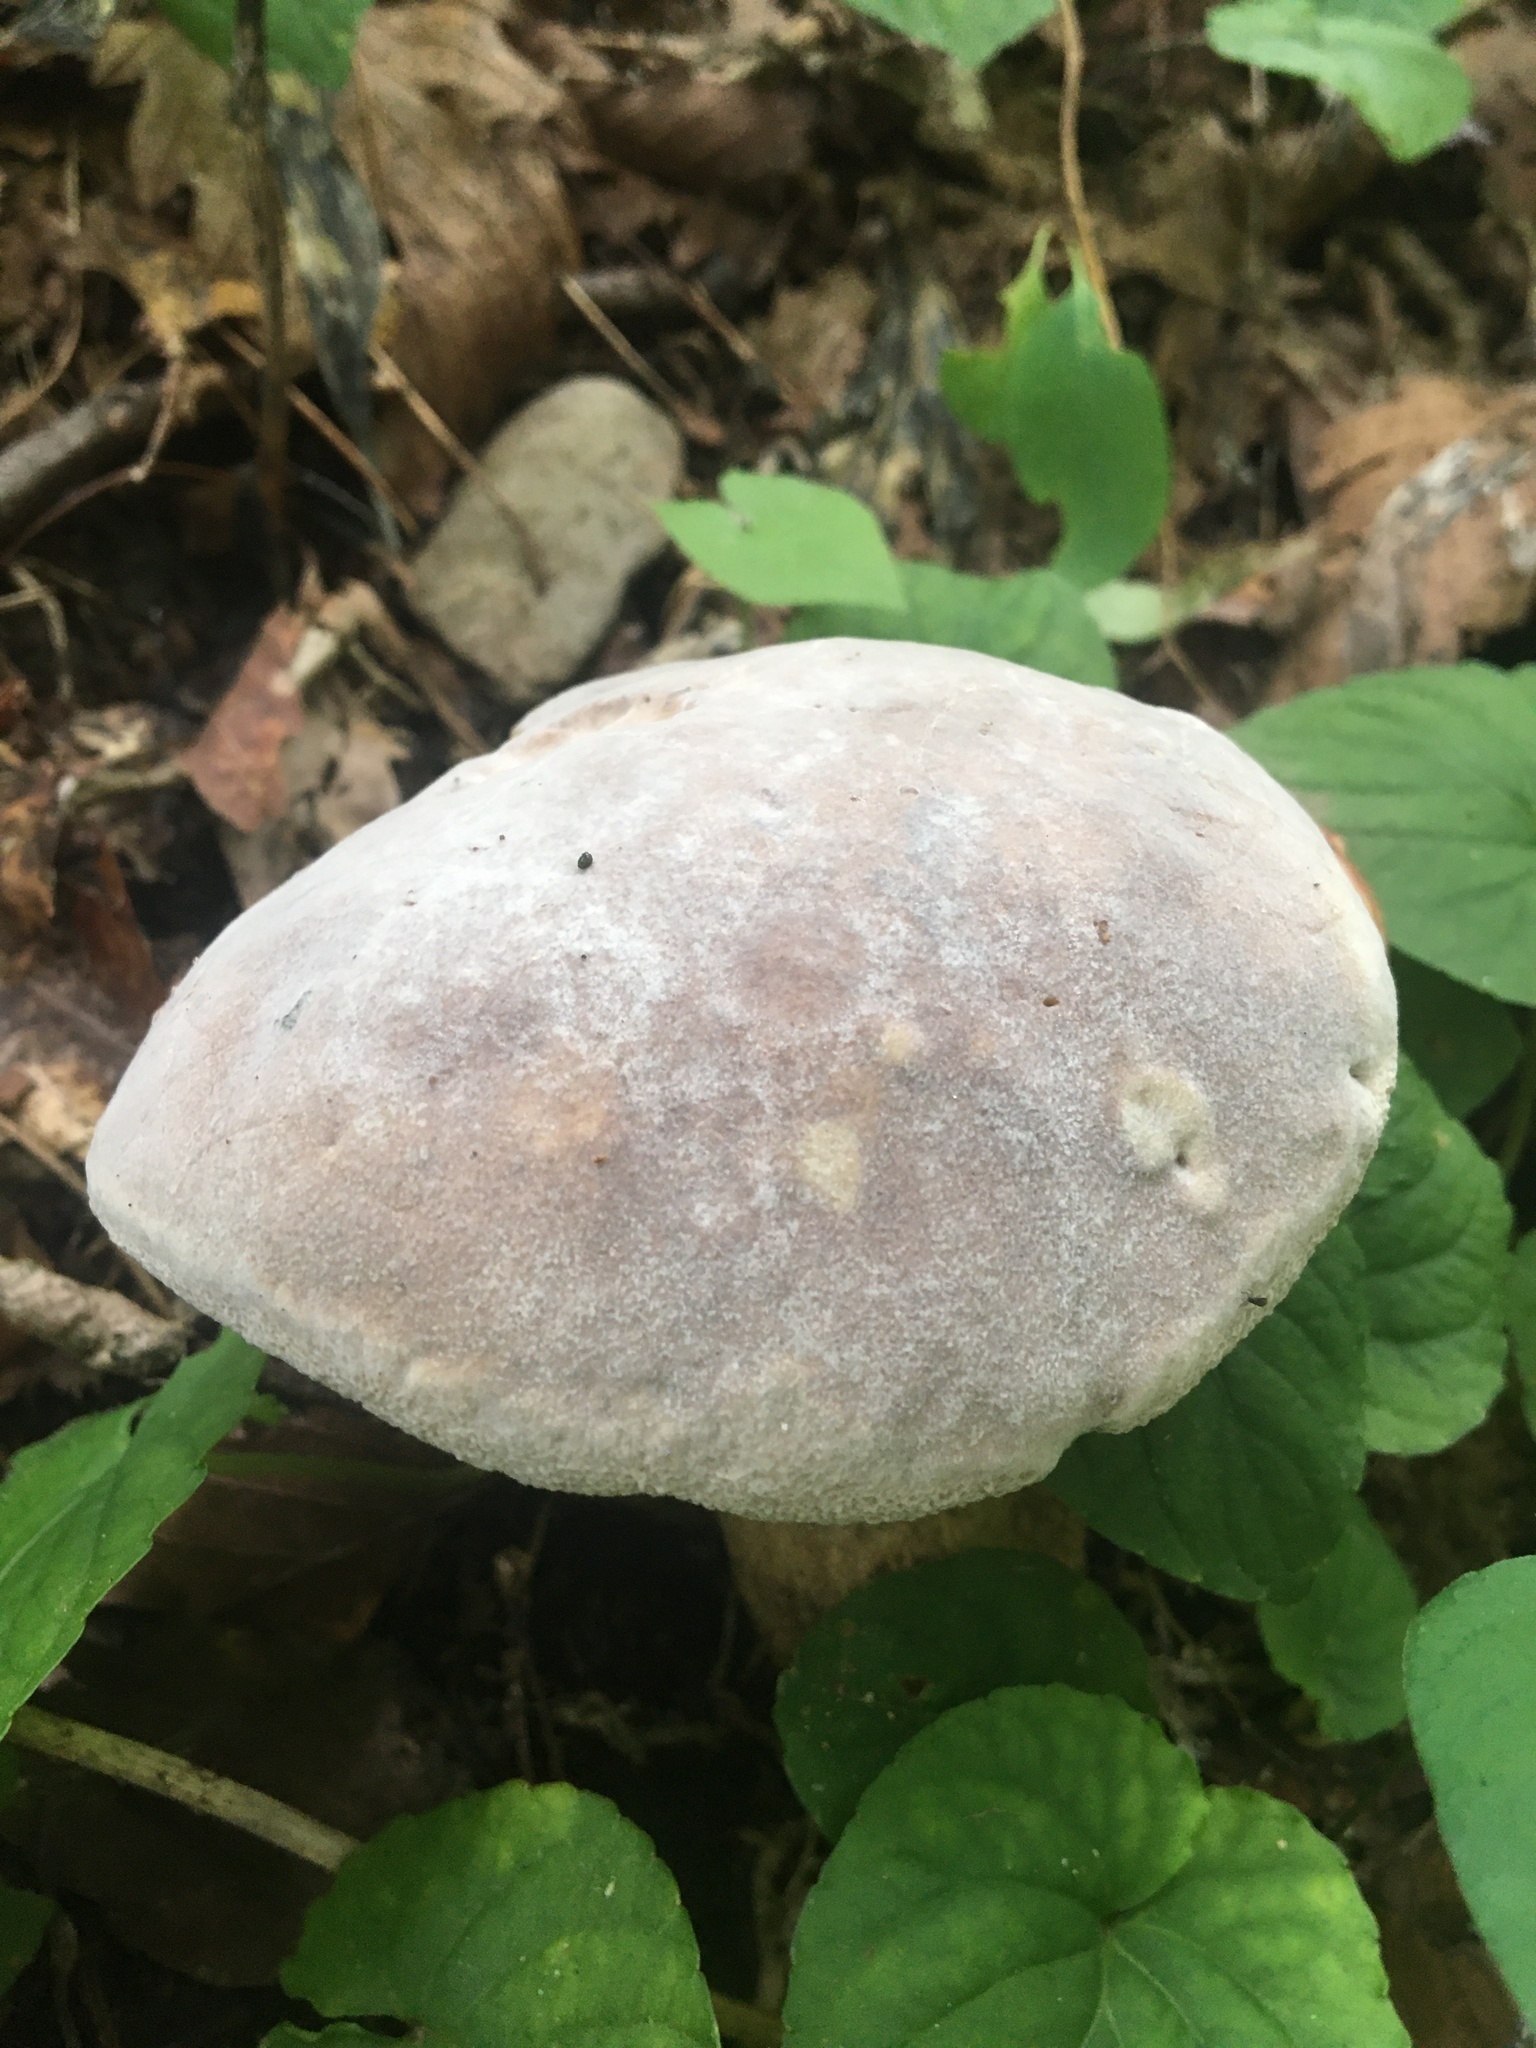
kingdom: Fungi
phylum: Ascomycota
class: Sordariomycetes
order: Hypocreales
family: Hypocreaceae
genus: Hypomyces
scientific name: Hypomyces chrysospermus
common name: Bolete mould
